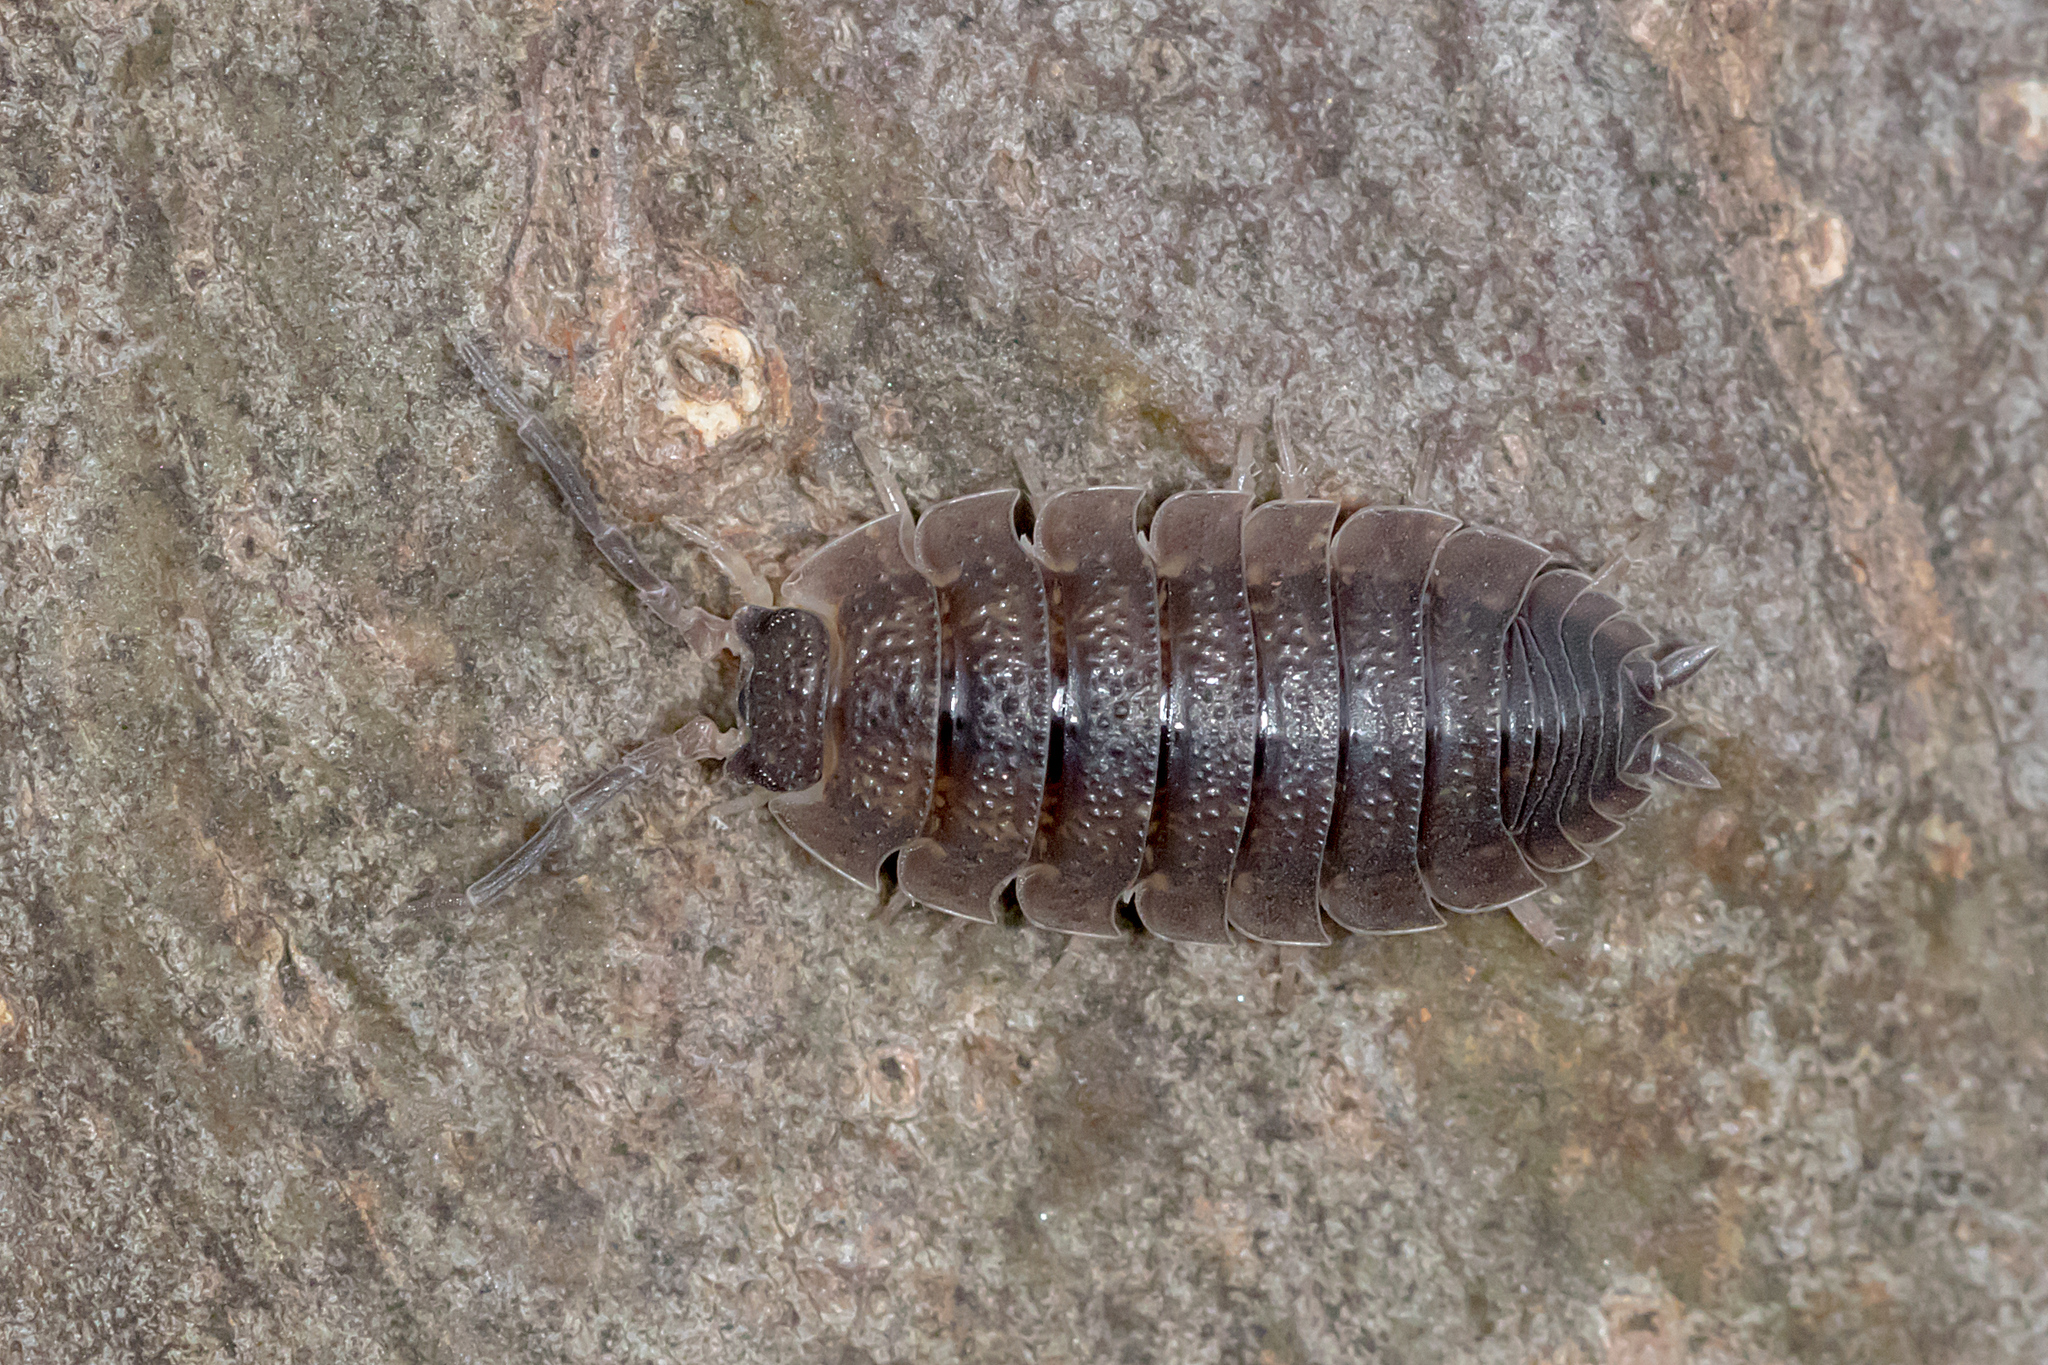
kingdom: Animalia
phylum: Arthropoda
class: Malacostraca
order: Isopoda
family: Porcellionidae
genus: Porcellio
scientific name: Porcellio scaber
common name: Common rough woodlouse
